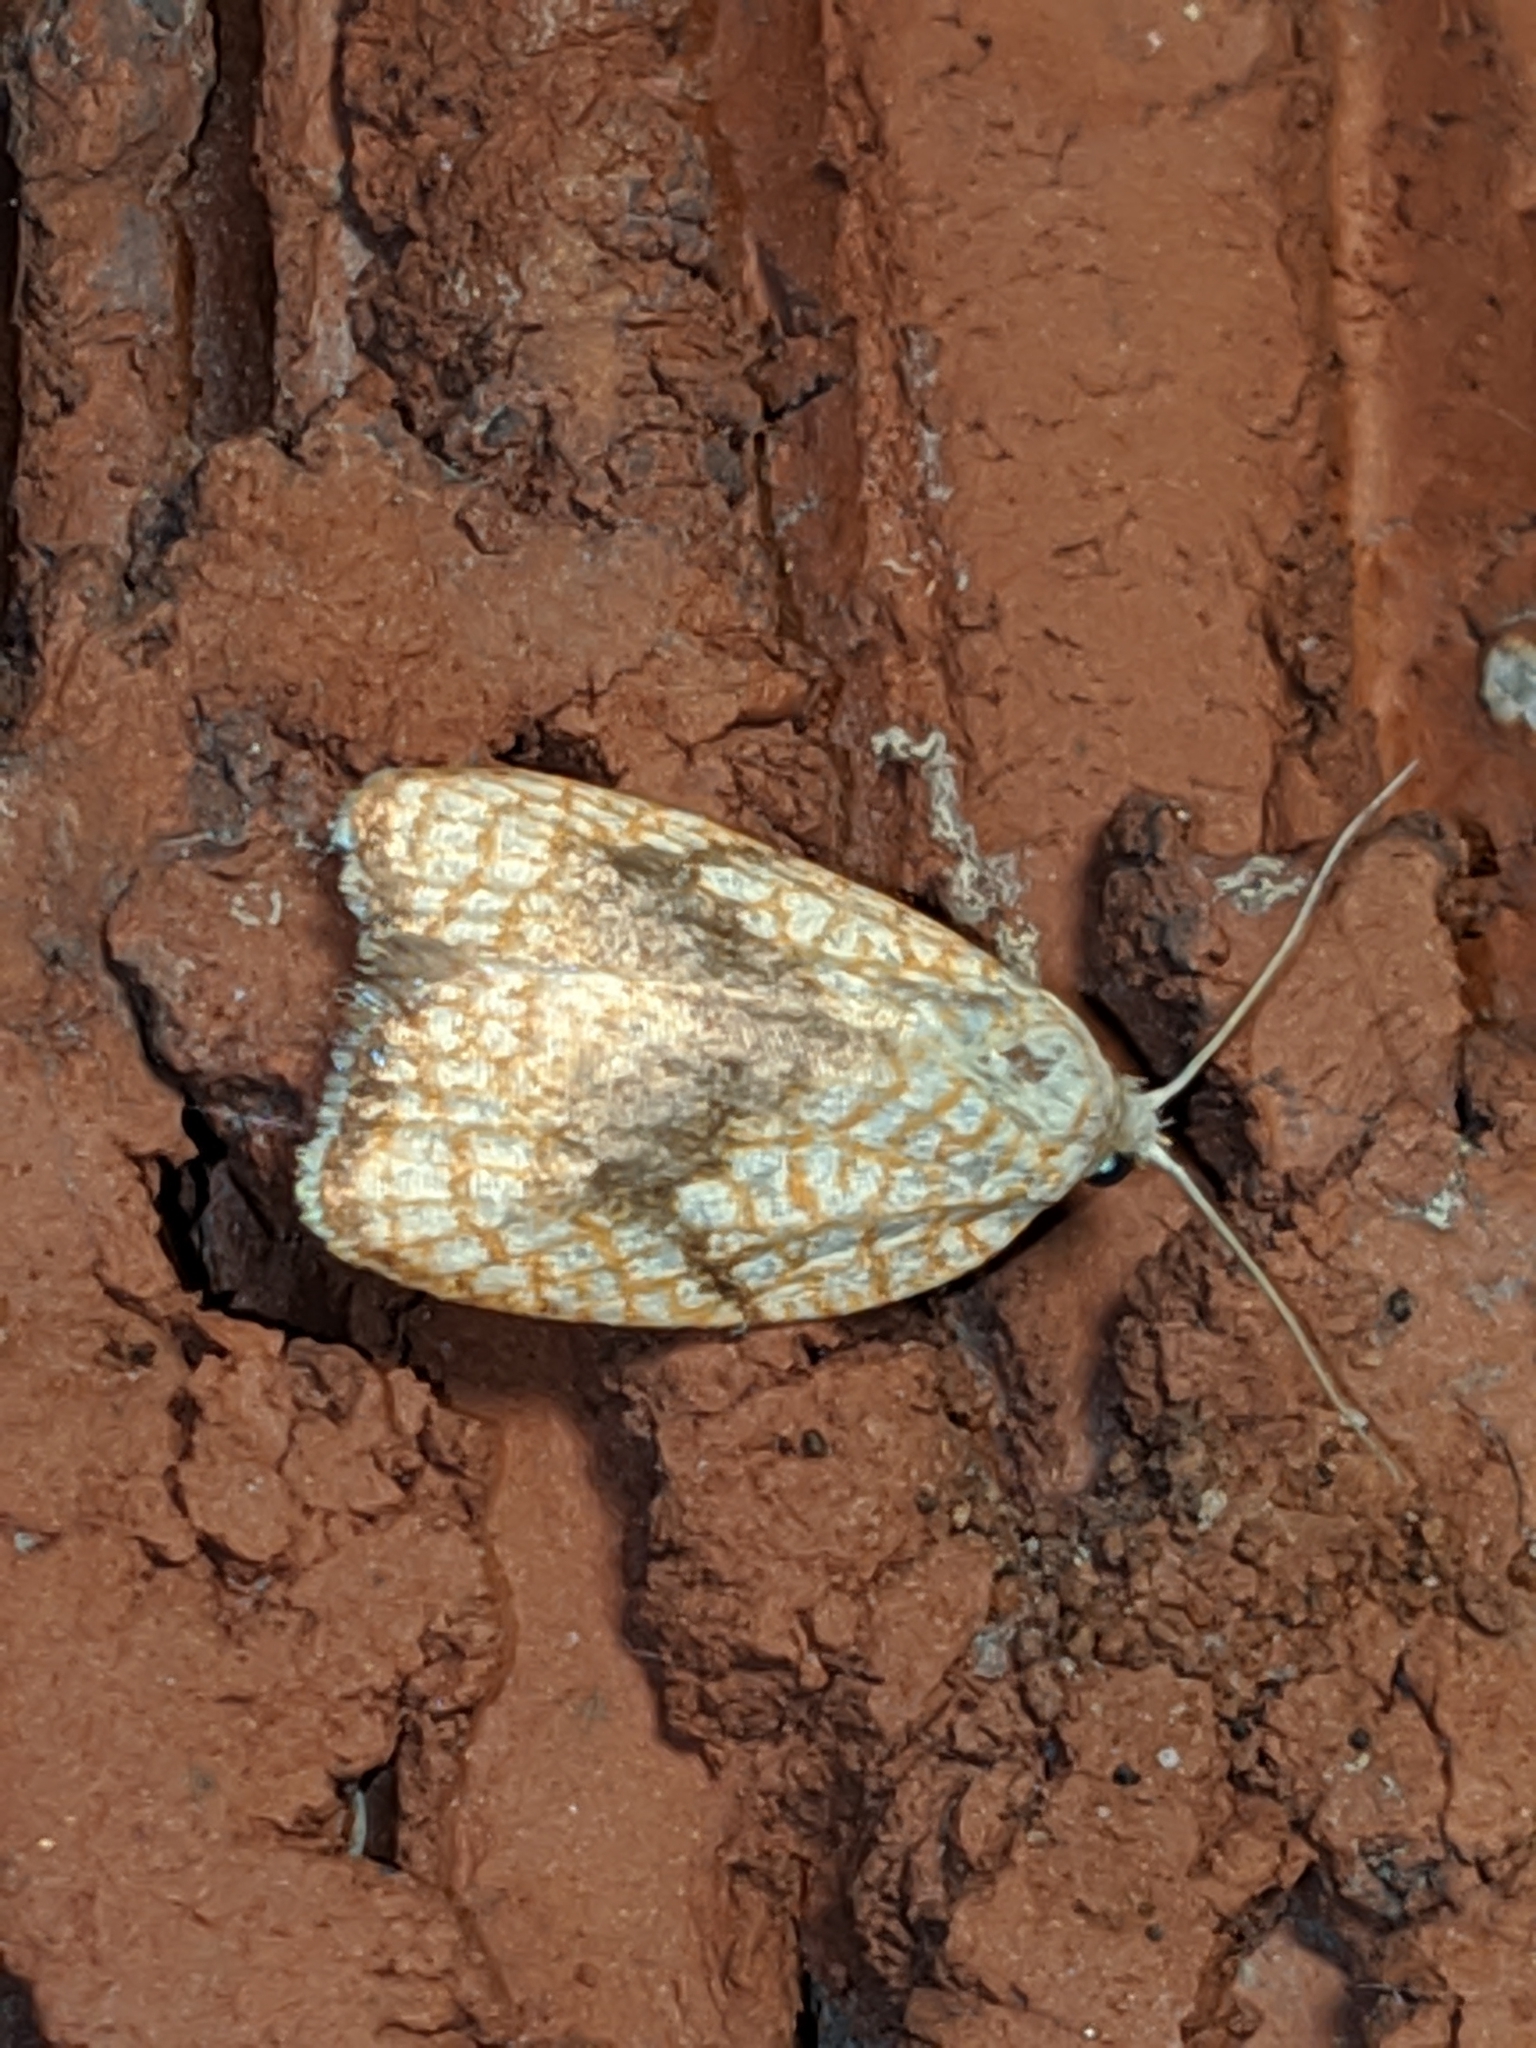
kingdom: Animalia
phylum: Arthropoda
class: Insecta
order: Lepidoptera
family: Tortricidae
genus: Acleris
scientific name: Acleris forsskaleana
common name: Maple button
